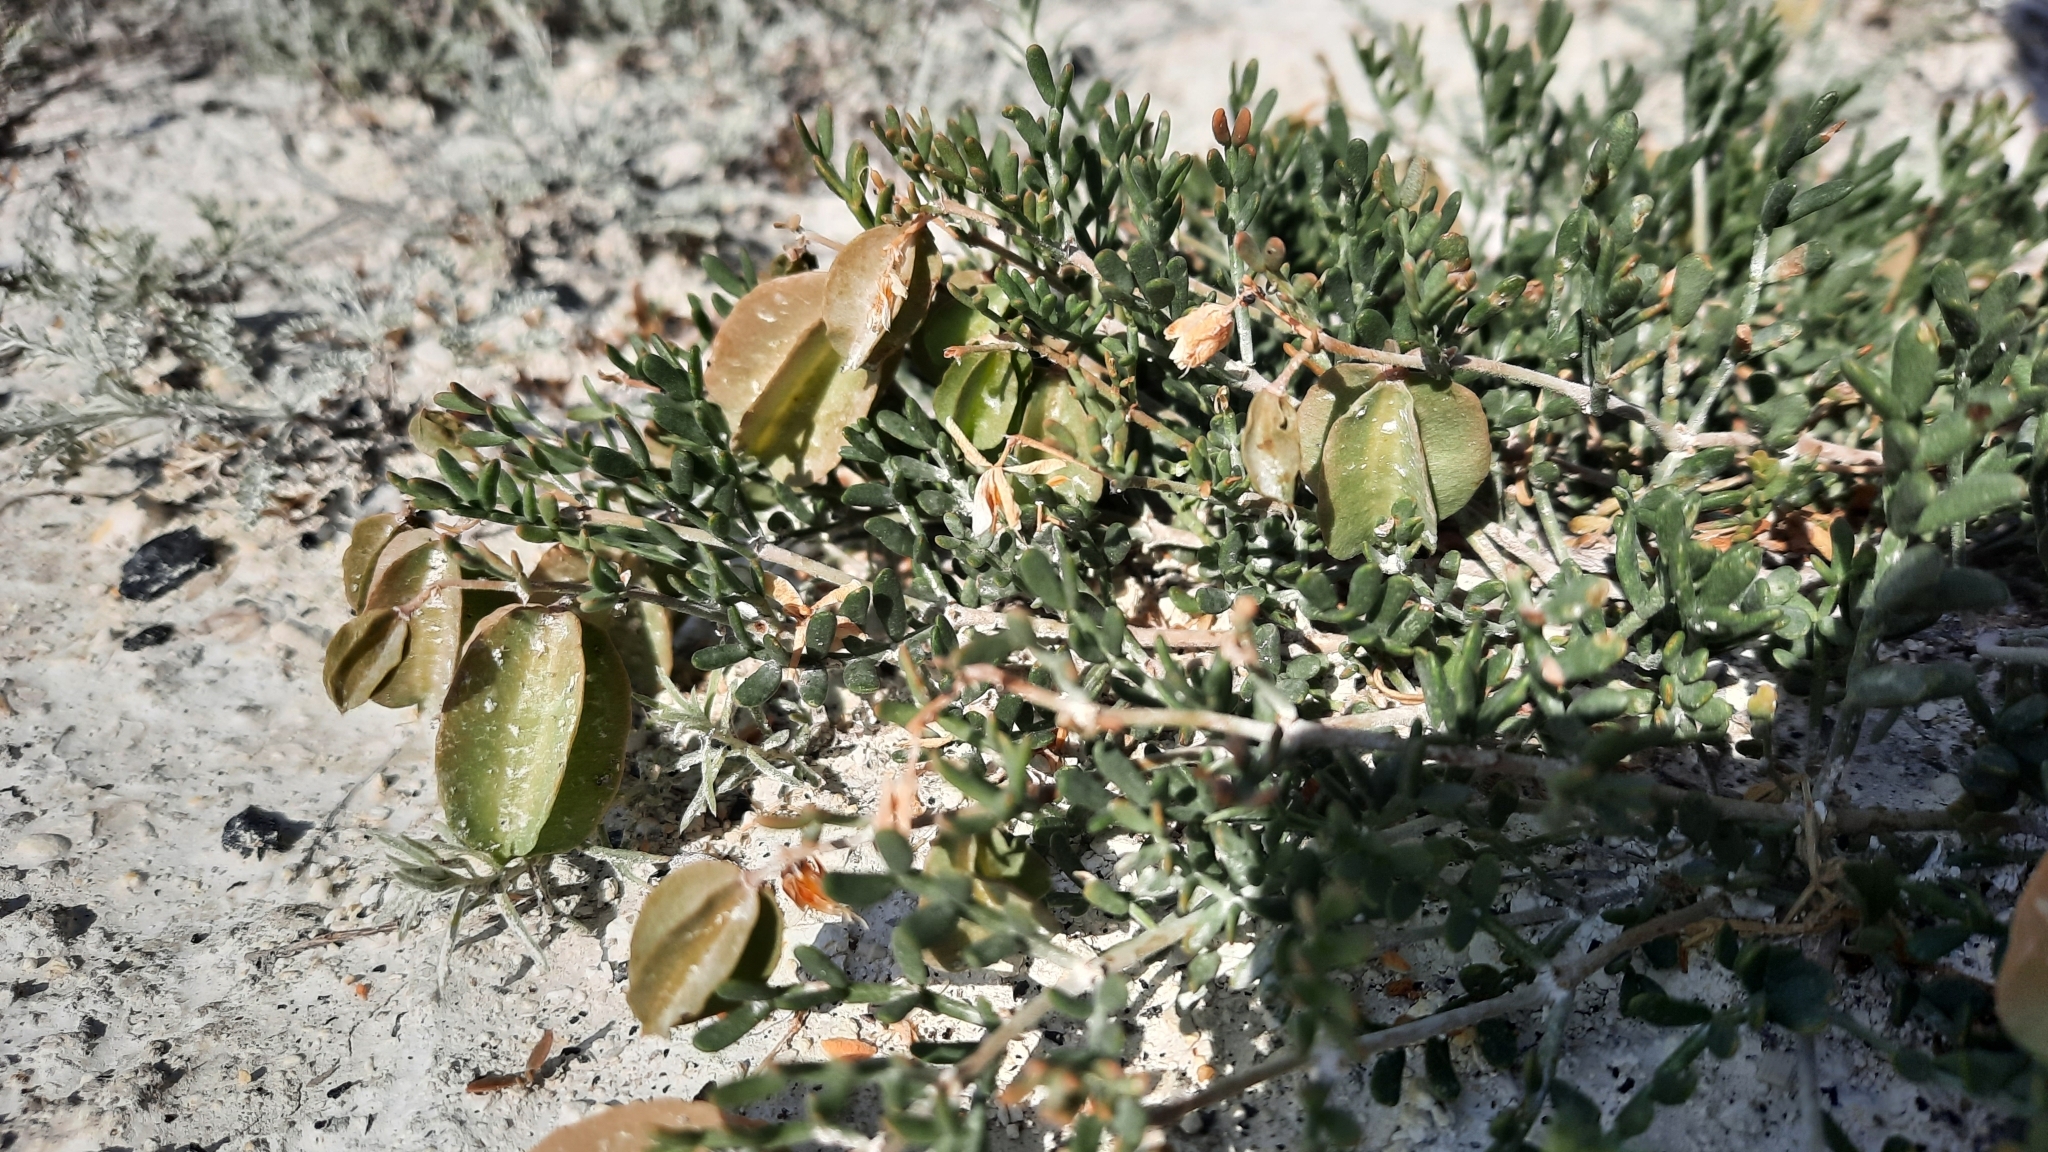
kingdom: Plantae
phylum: Tracheophyta
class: Magnoliopsida
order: Zygophyllales
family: Zygophyllaceae
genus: Zygophyllum
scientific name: Zygophyllum pinnatum
